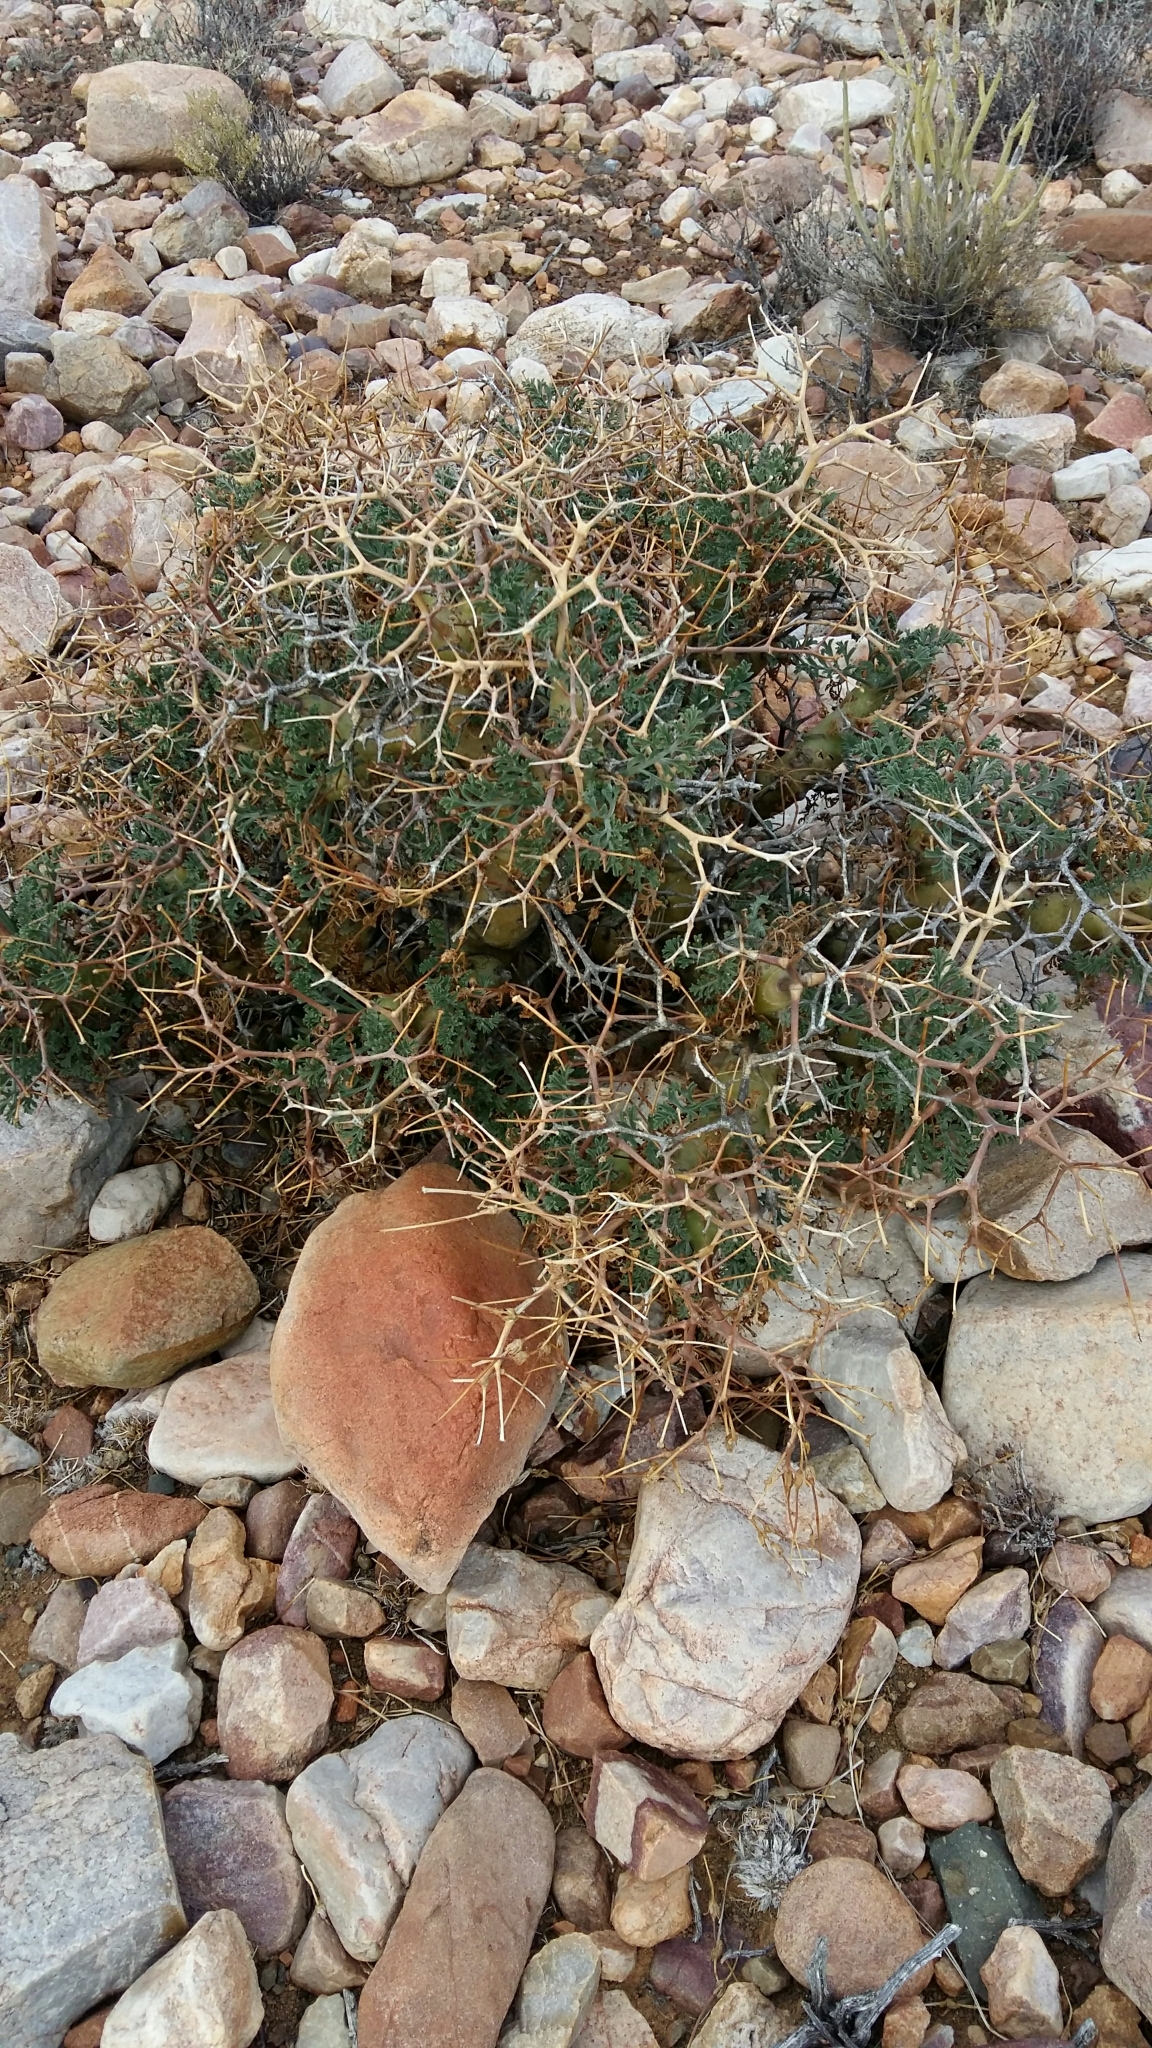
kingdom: Plantae
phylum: Tracheophyta
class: Magnoliopsida
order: Geraniales
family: Geraniaceae
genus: Pelargonium
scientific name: Pelargonium crithmifolium
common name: Samphire-leaf pelargonium
